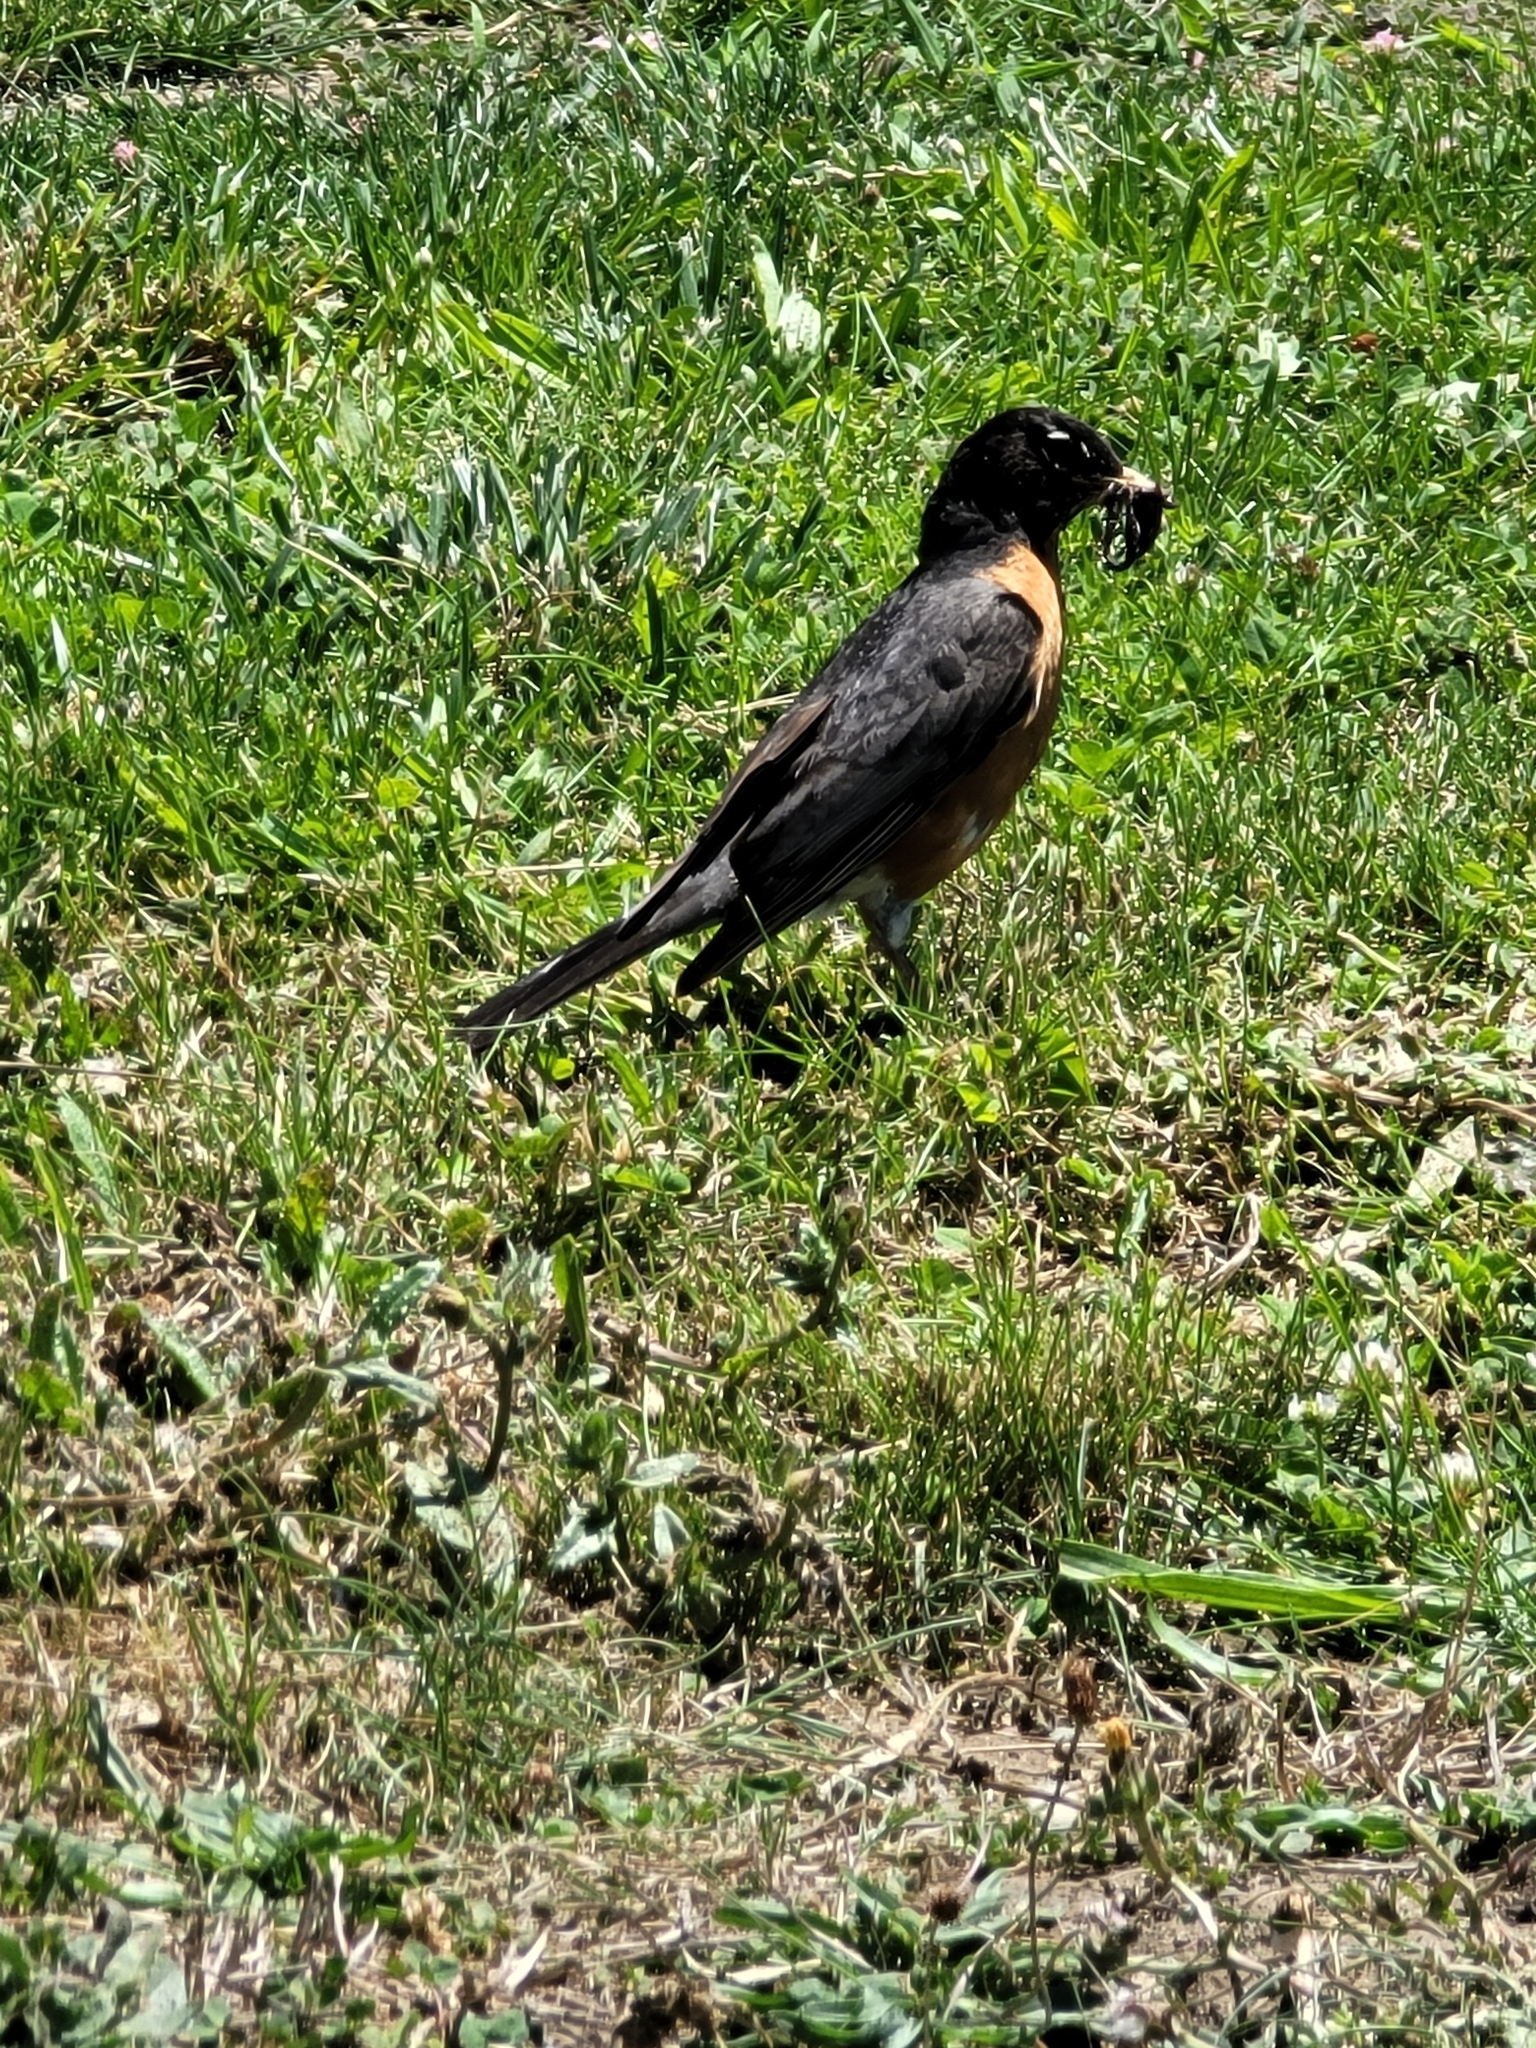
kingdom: Animalia
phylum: Chordata
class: Aves
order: Passeriformes
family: Turdidae
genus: Turdus
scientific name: Turdus migratorius
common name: American robin
